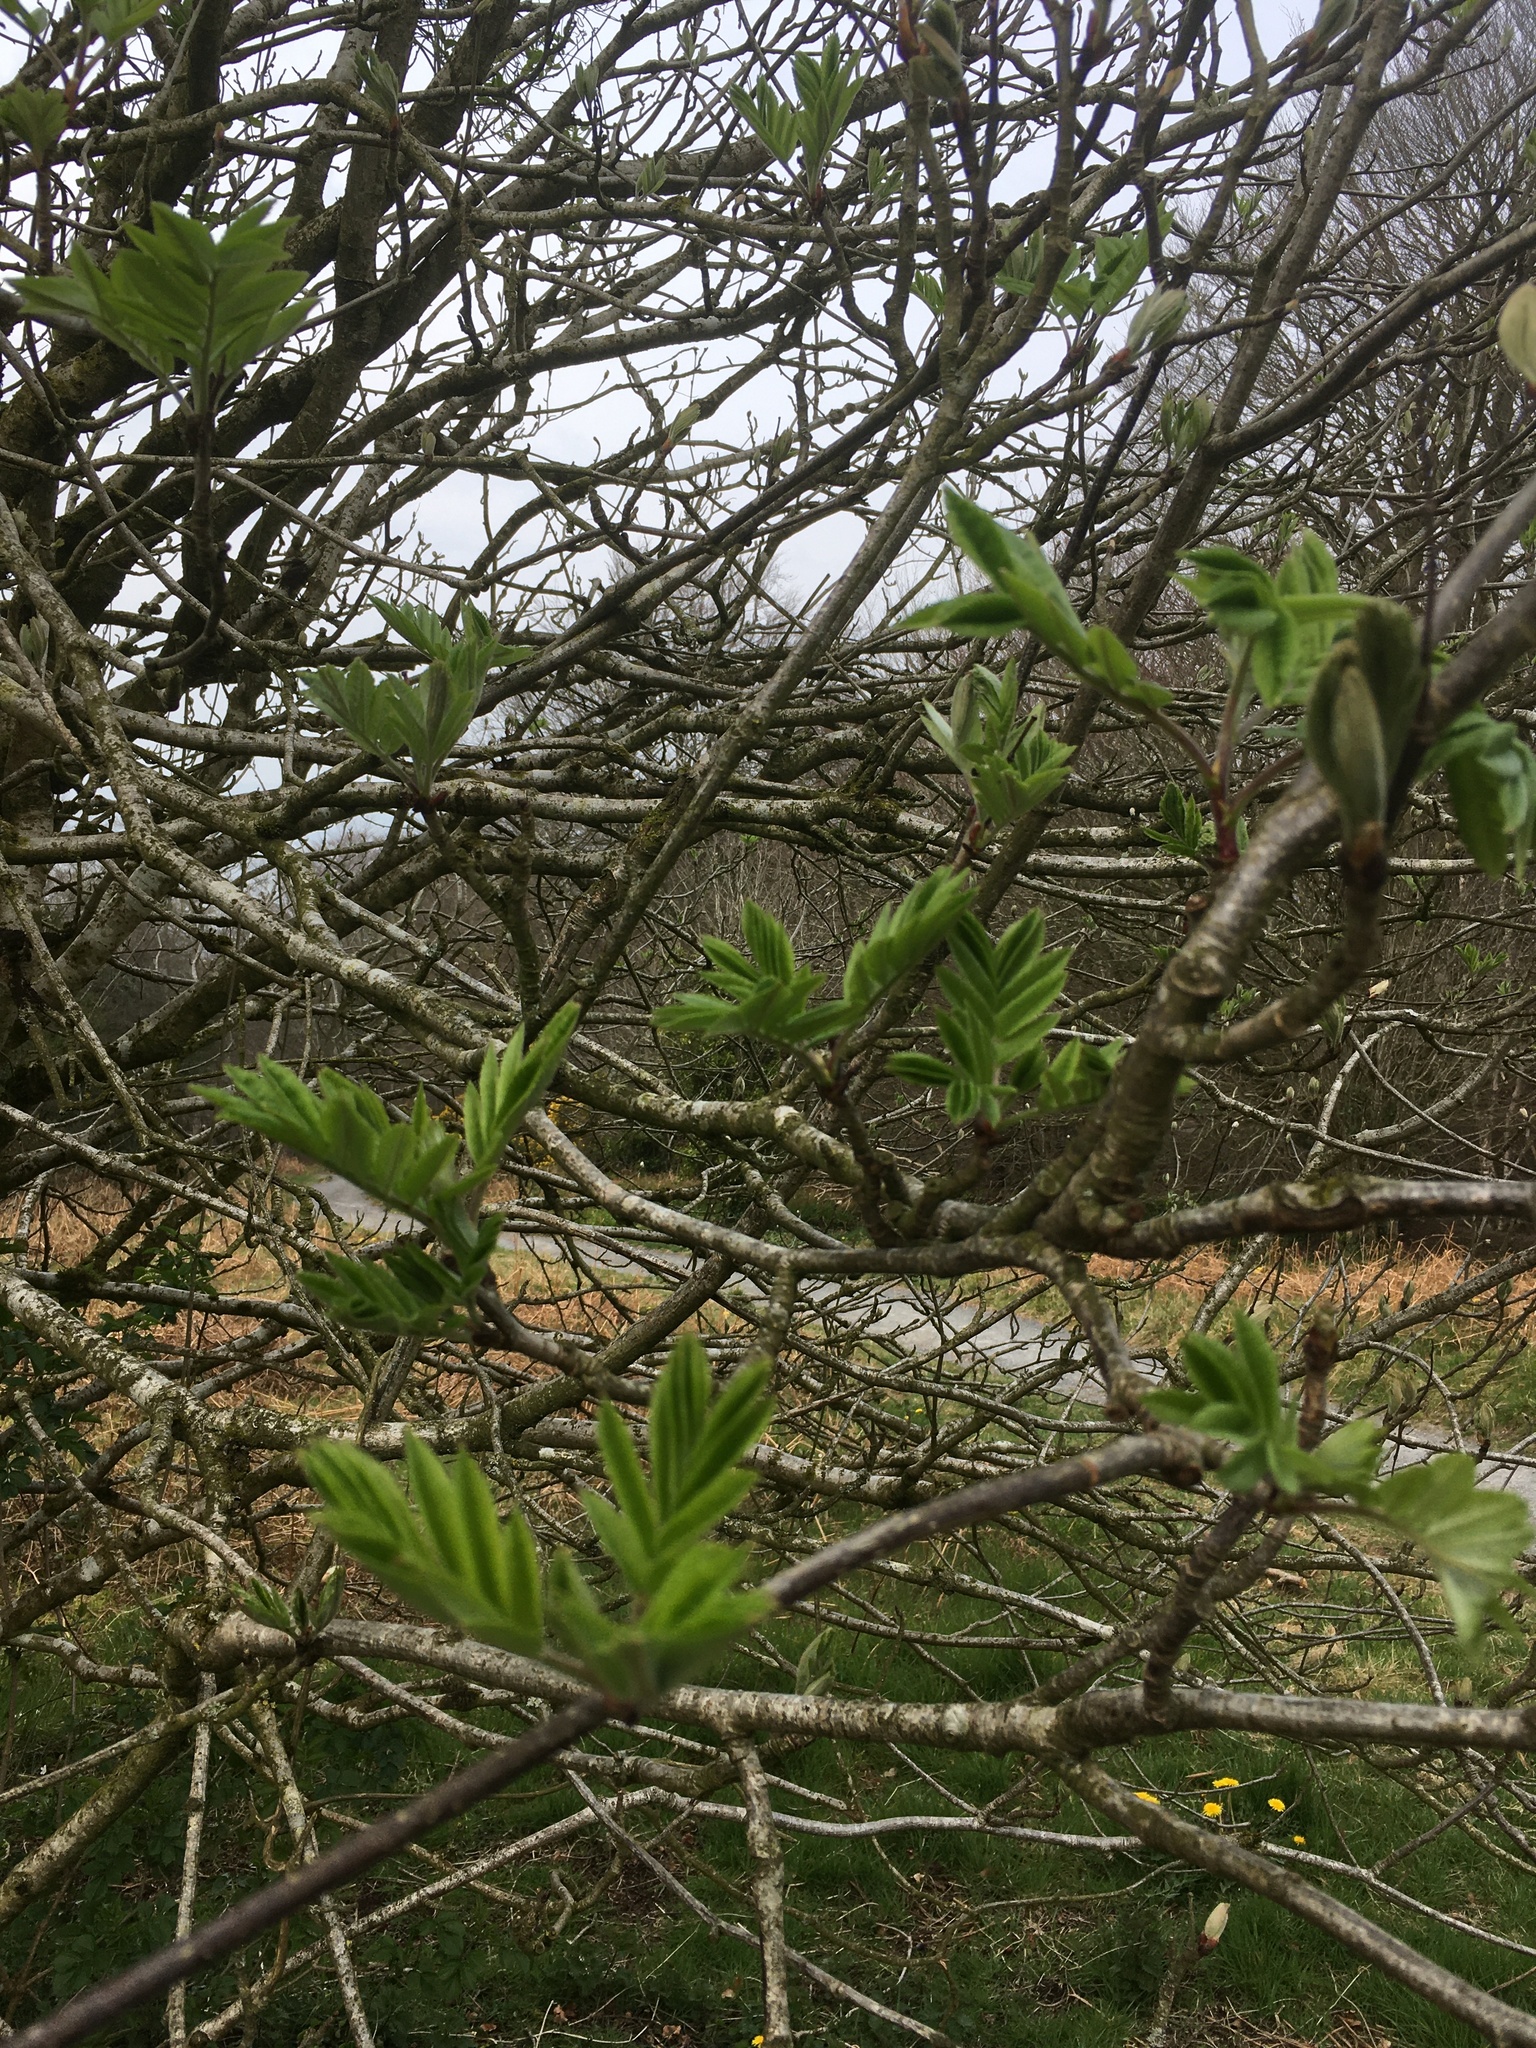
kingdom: Plantae
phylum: Tracheophyta
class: Magnoliopsida
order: Rosales
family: Rosaceae
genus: Sorbus
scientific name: Sorbus aucuparia
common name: Rowan
